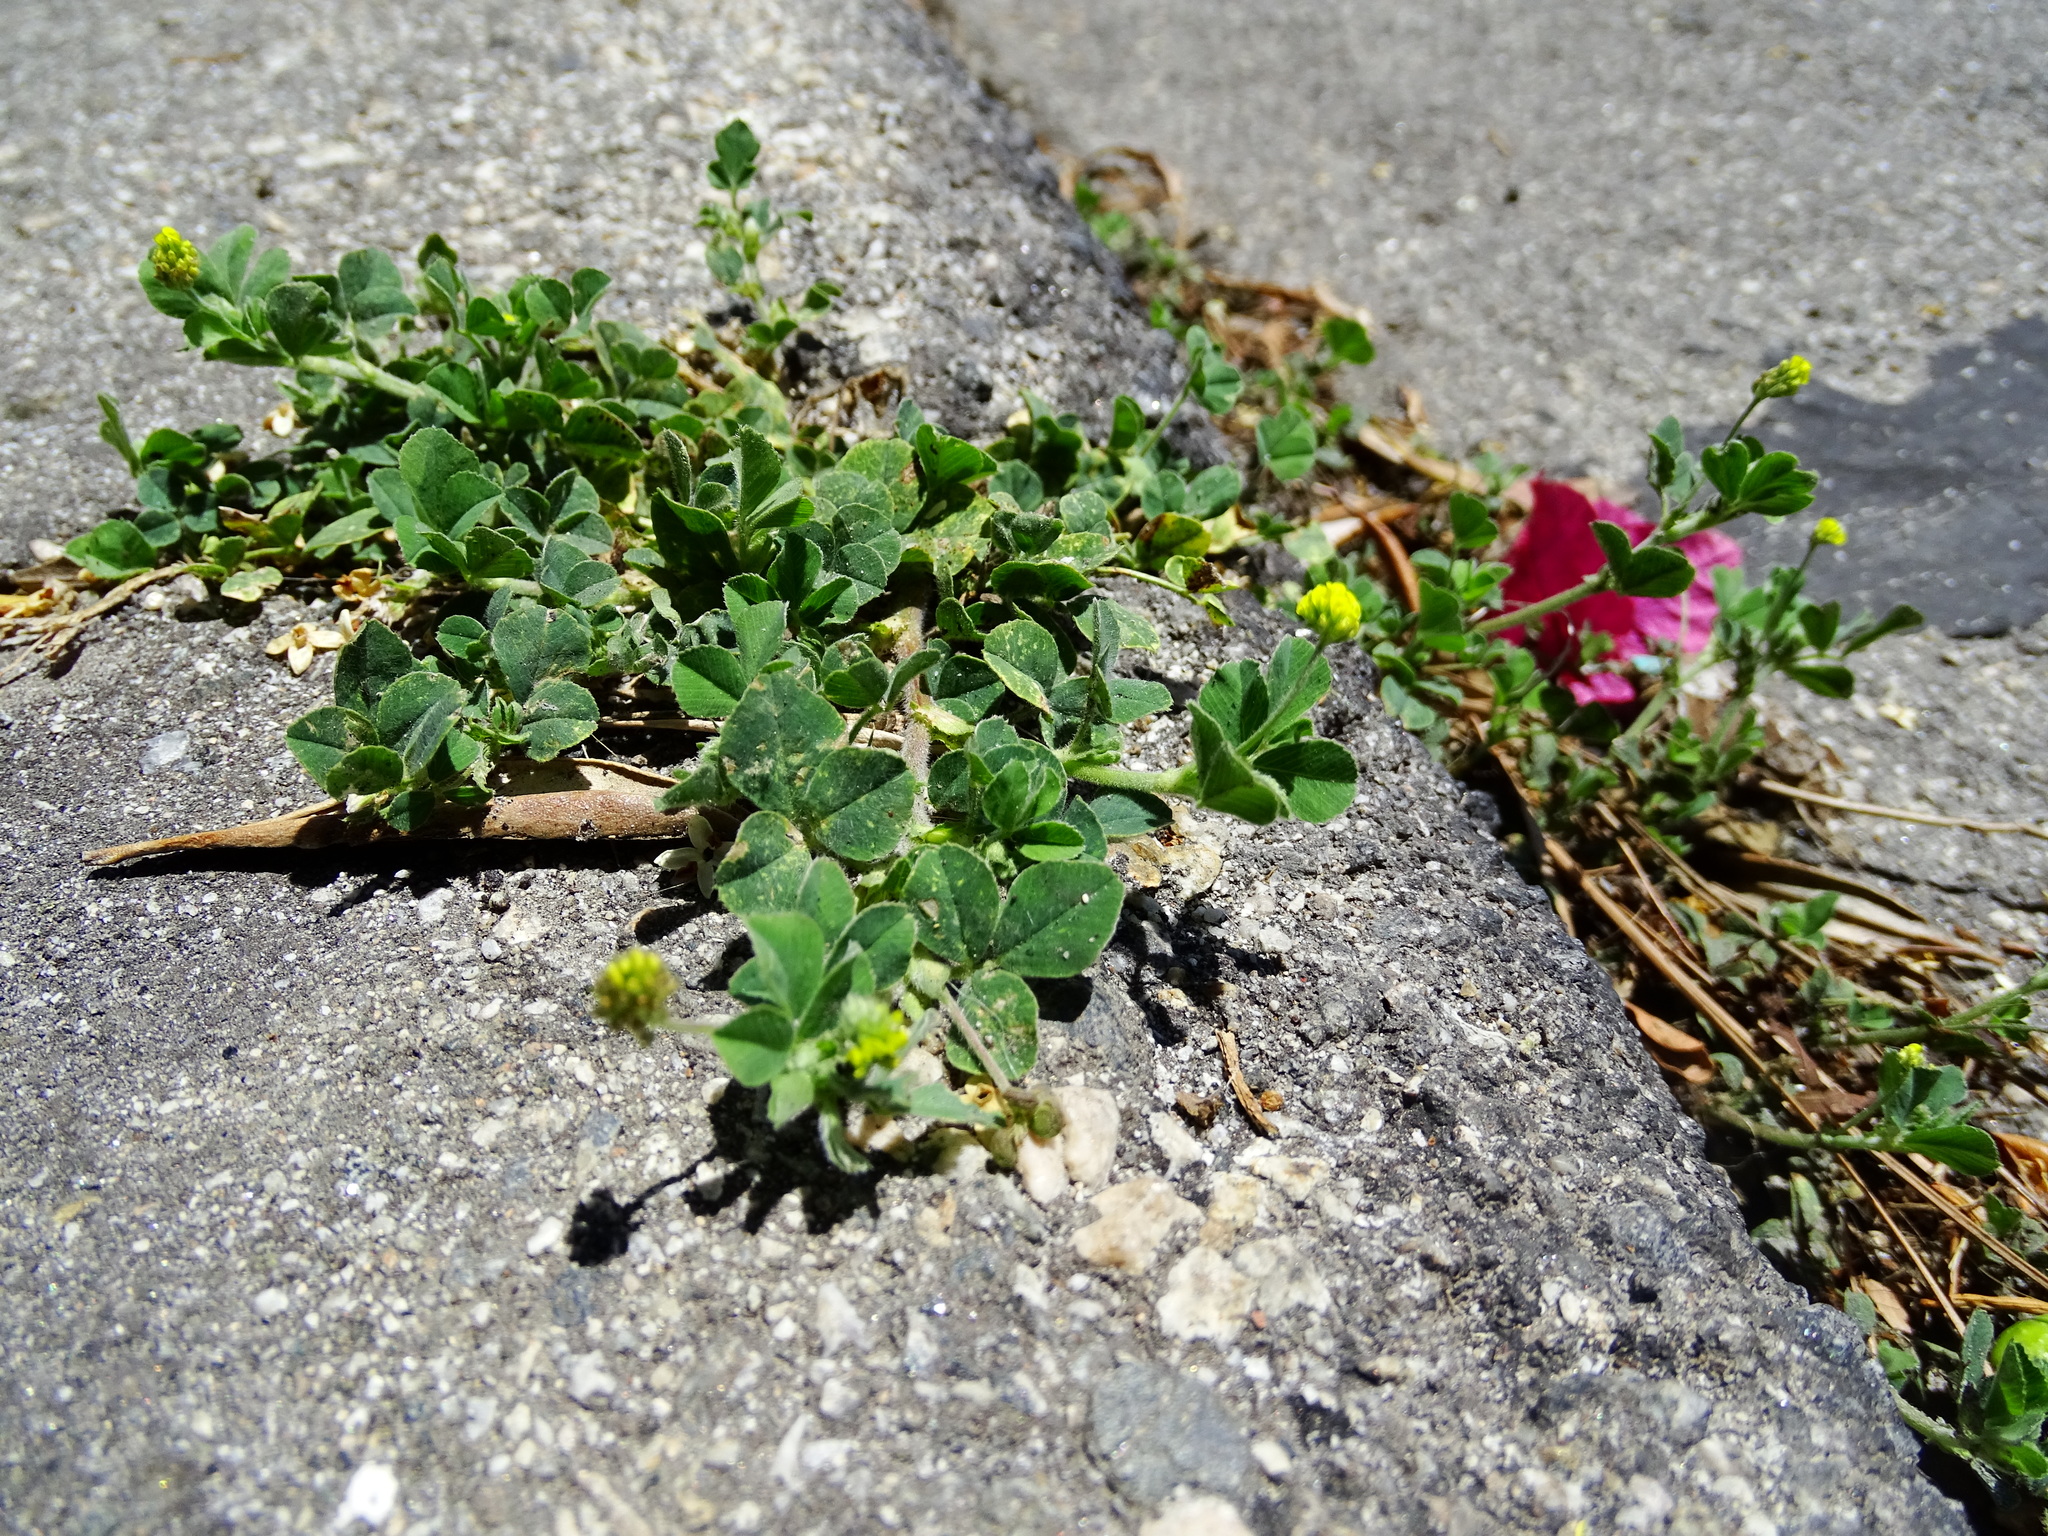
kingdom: Plantae
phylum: Tracheophyta
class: Magnoliopsida
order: Fabales
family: Fabaceae
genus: Medicago
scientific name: Medicago lupulina
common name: Black medick
